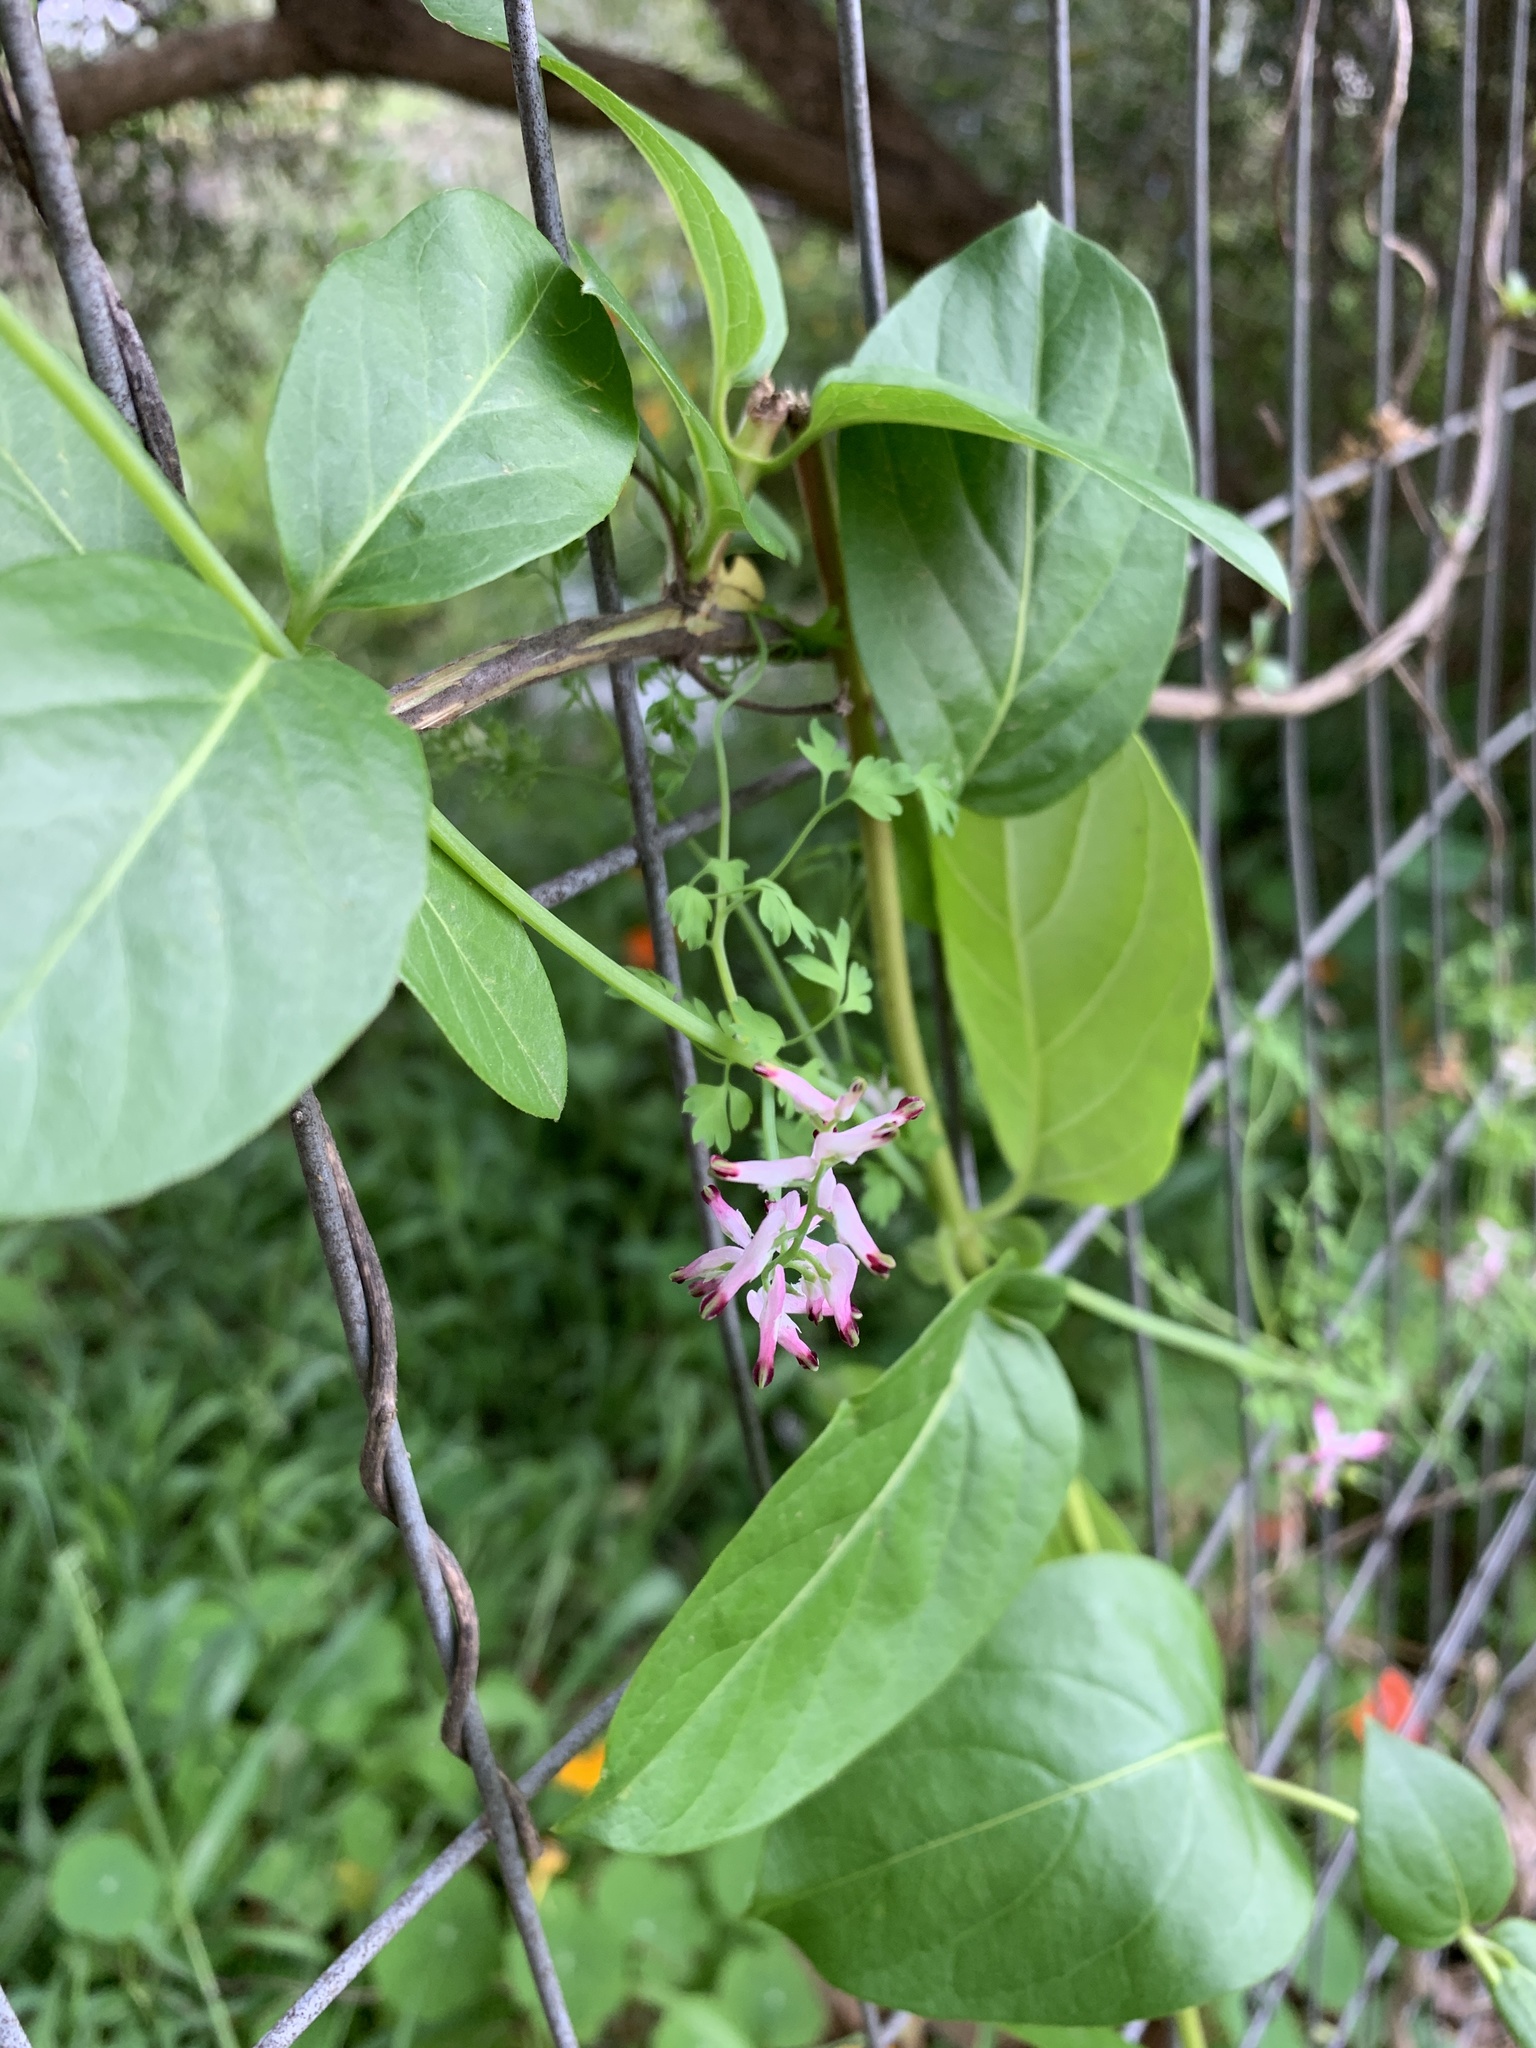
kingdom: Plantae
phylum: Tracheophyta
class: Magnoliopsida
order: Ranunculales
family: Papaveraceae
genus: Fumaria
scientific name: Fumaria muralis
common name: Common ramping-fumitory
